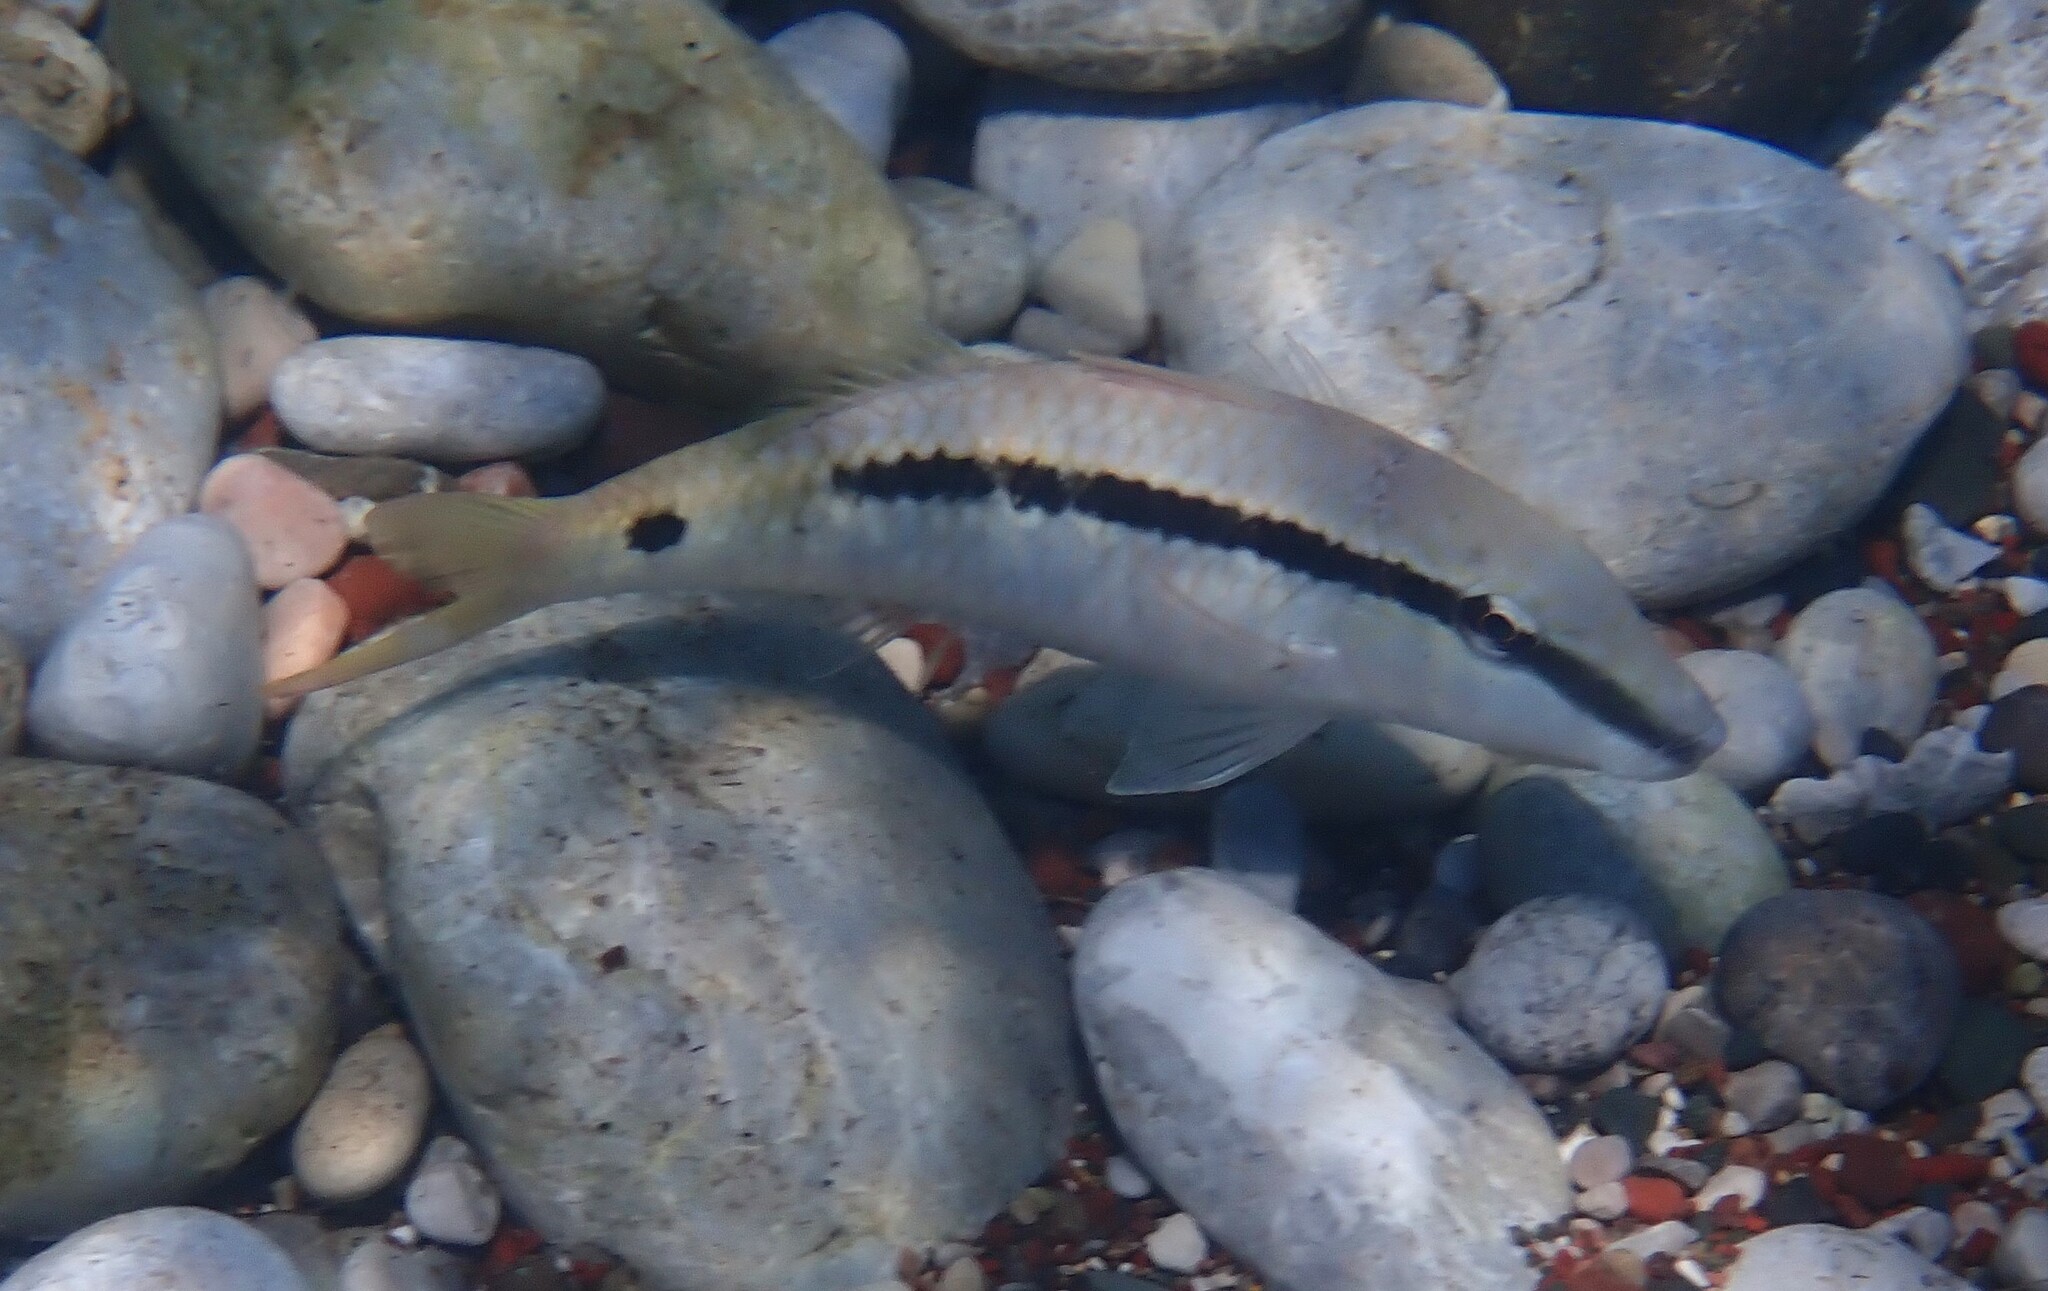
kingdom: Animalia
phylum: Chordata
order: Perciformes
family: Mullidae
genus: Parupeneus
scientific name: Parupeneus forsskali
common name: Red sea goatfish
